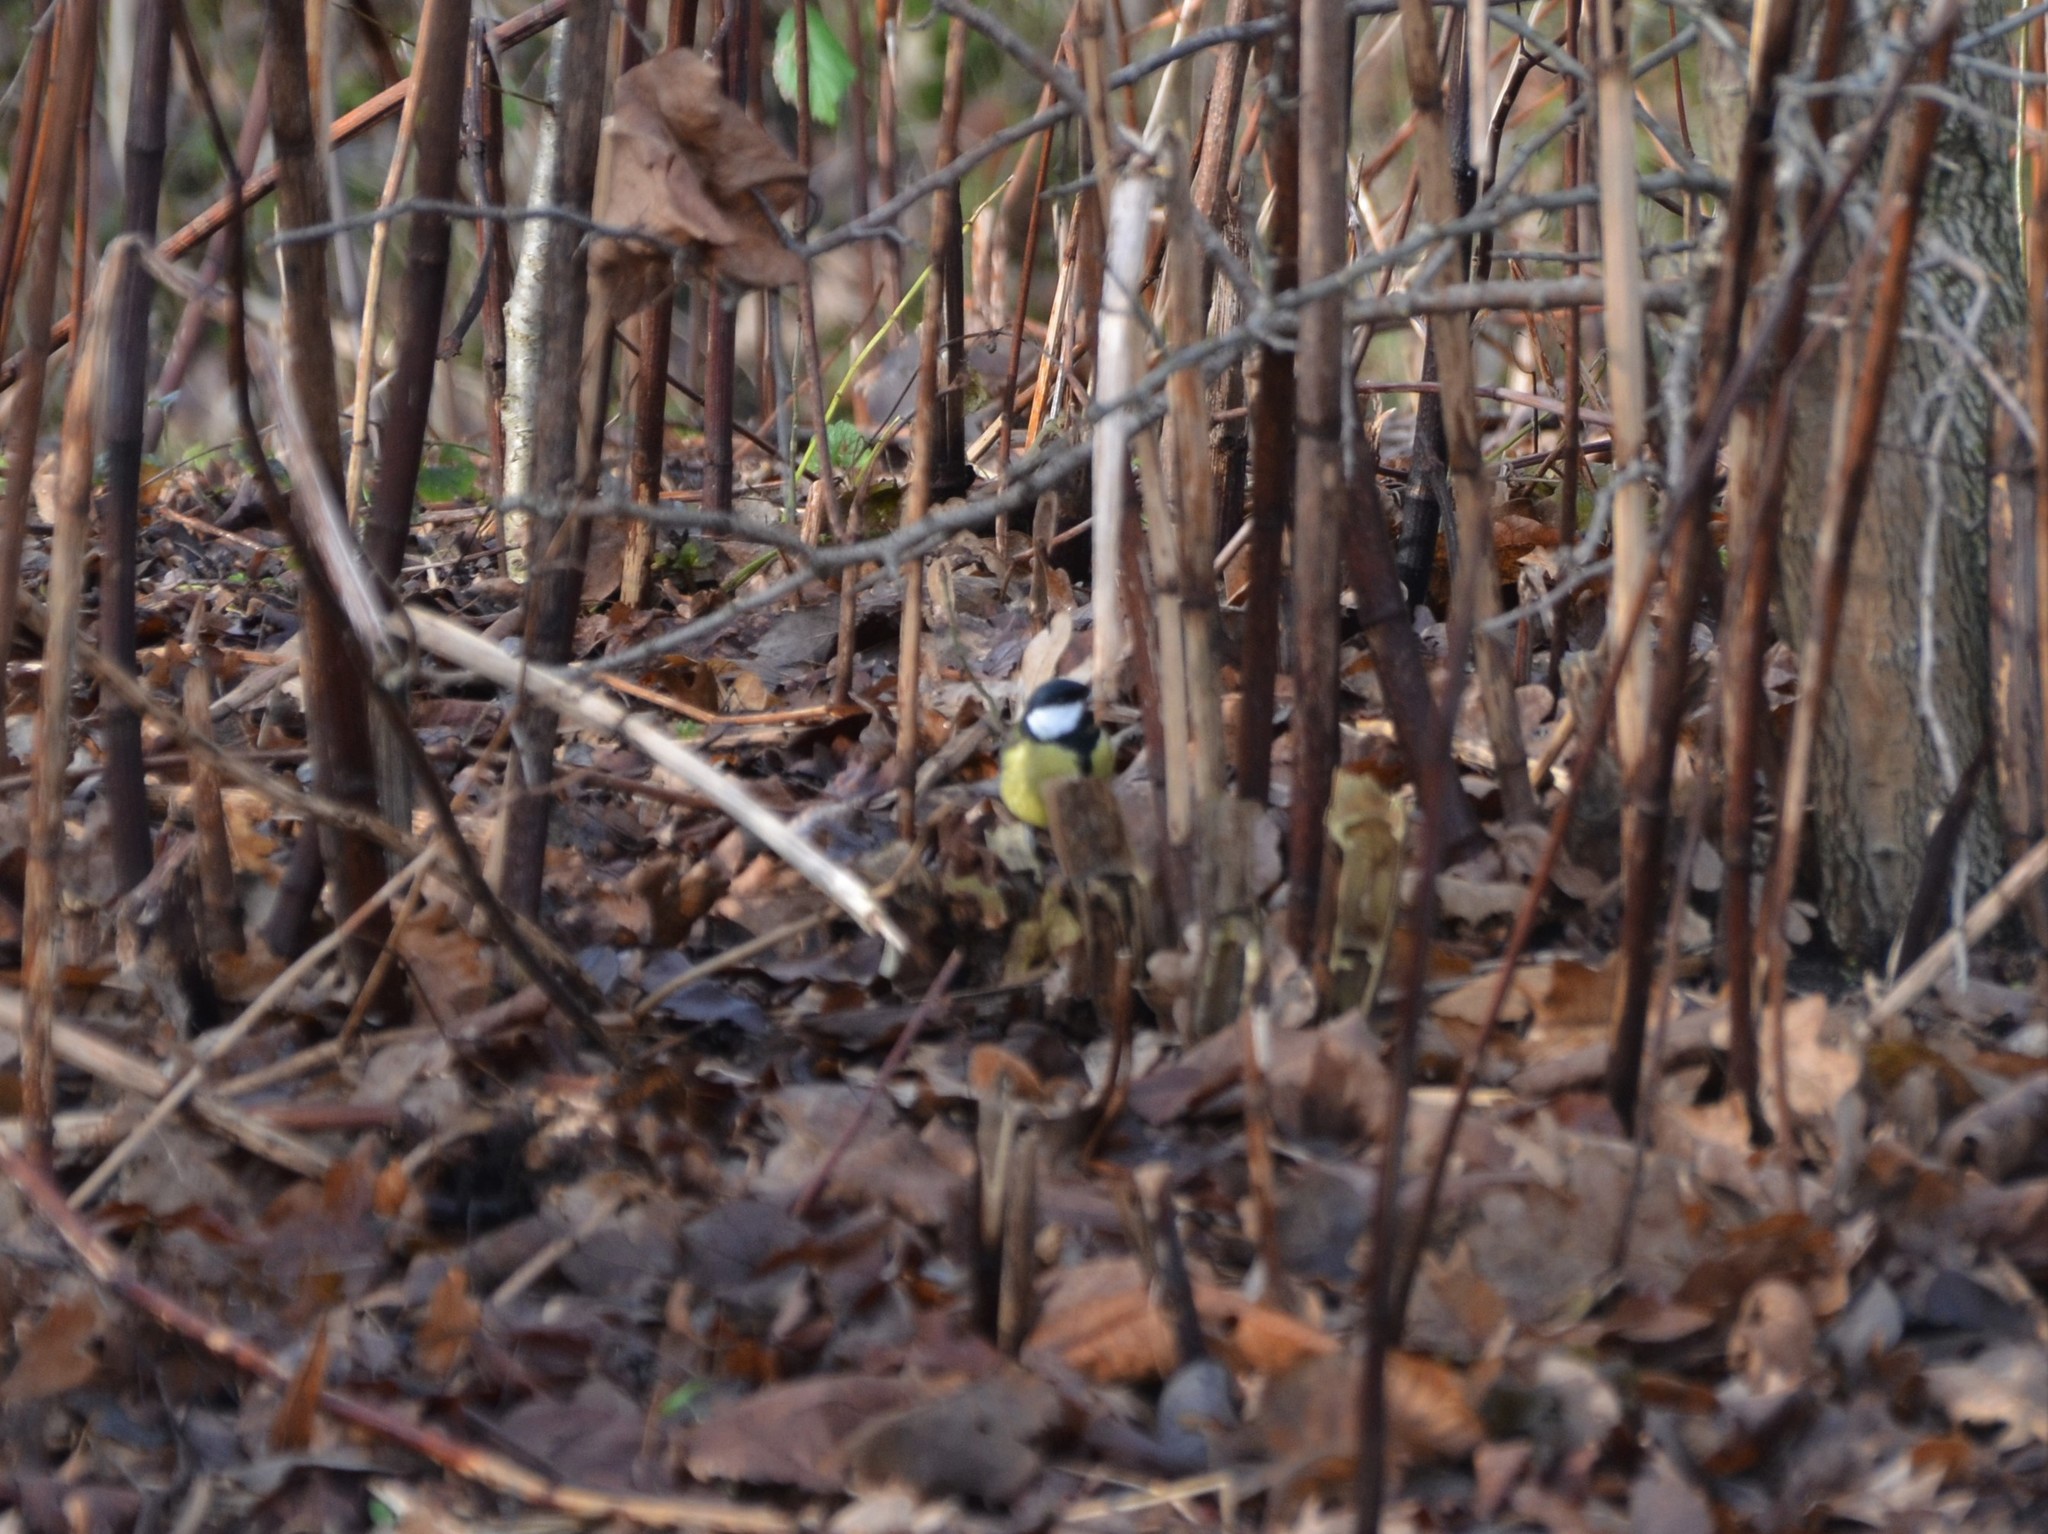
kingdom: Animalia
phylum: Chordata
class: Aves
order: Passeriformes
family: Paridae
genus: Parus
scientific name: Parus major
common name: Great tit
